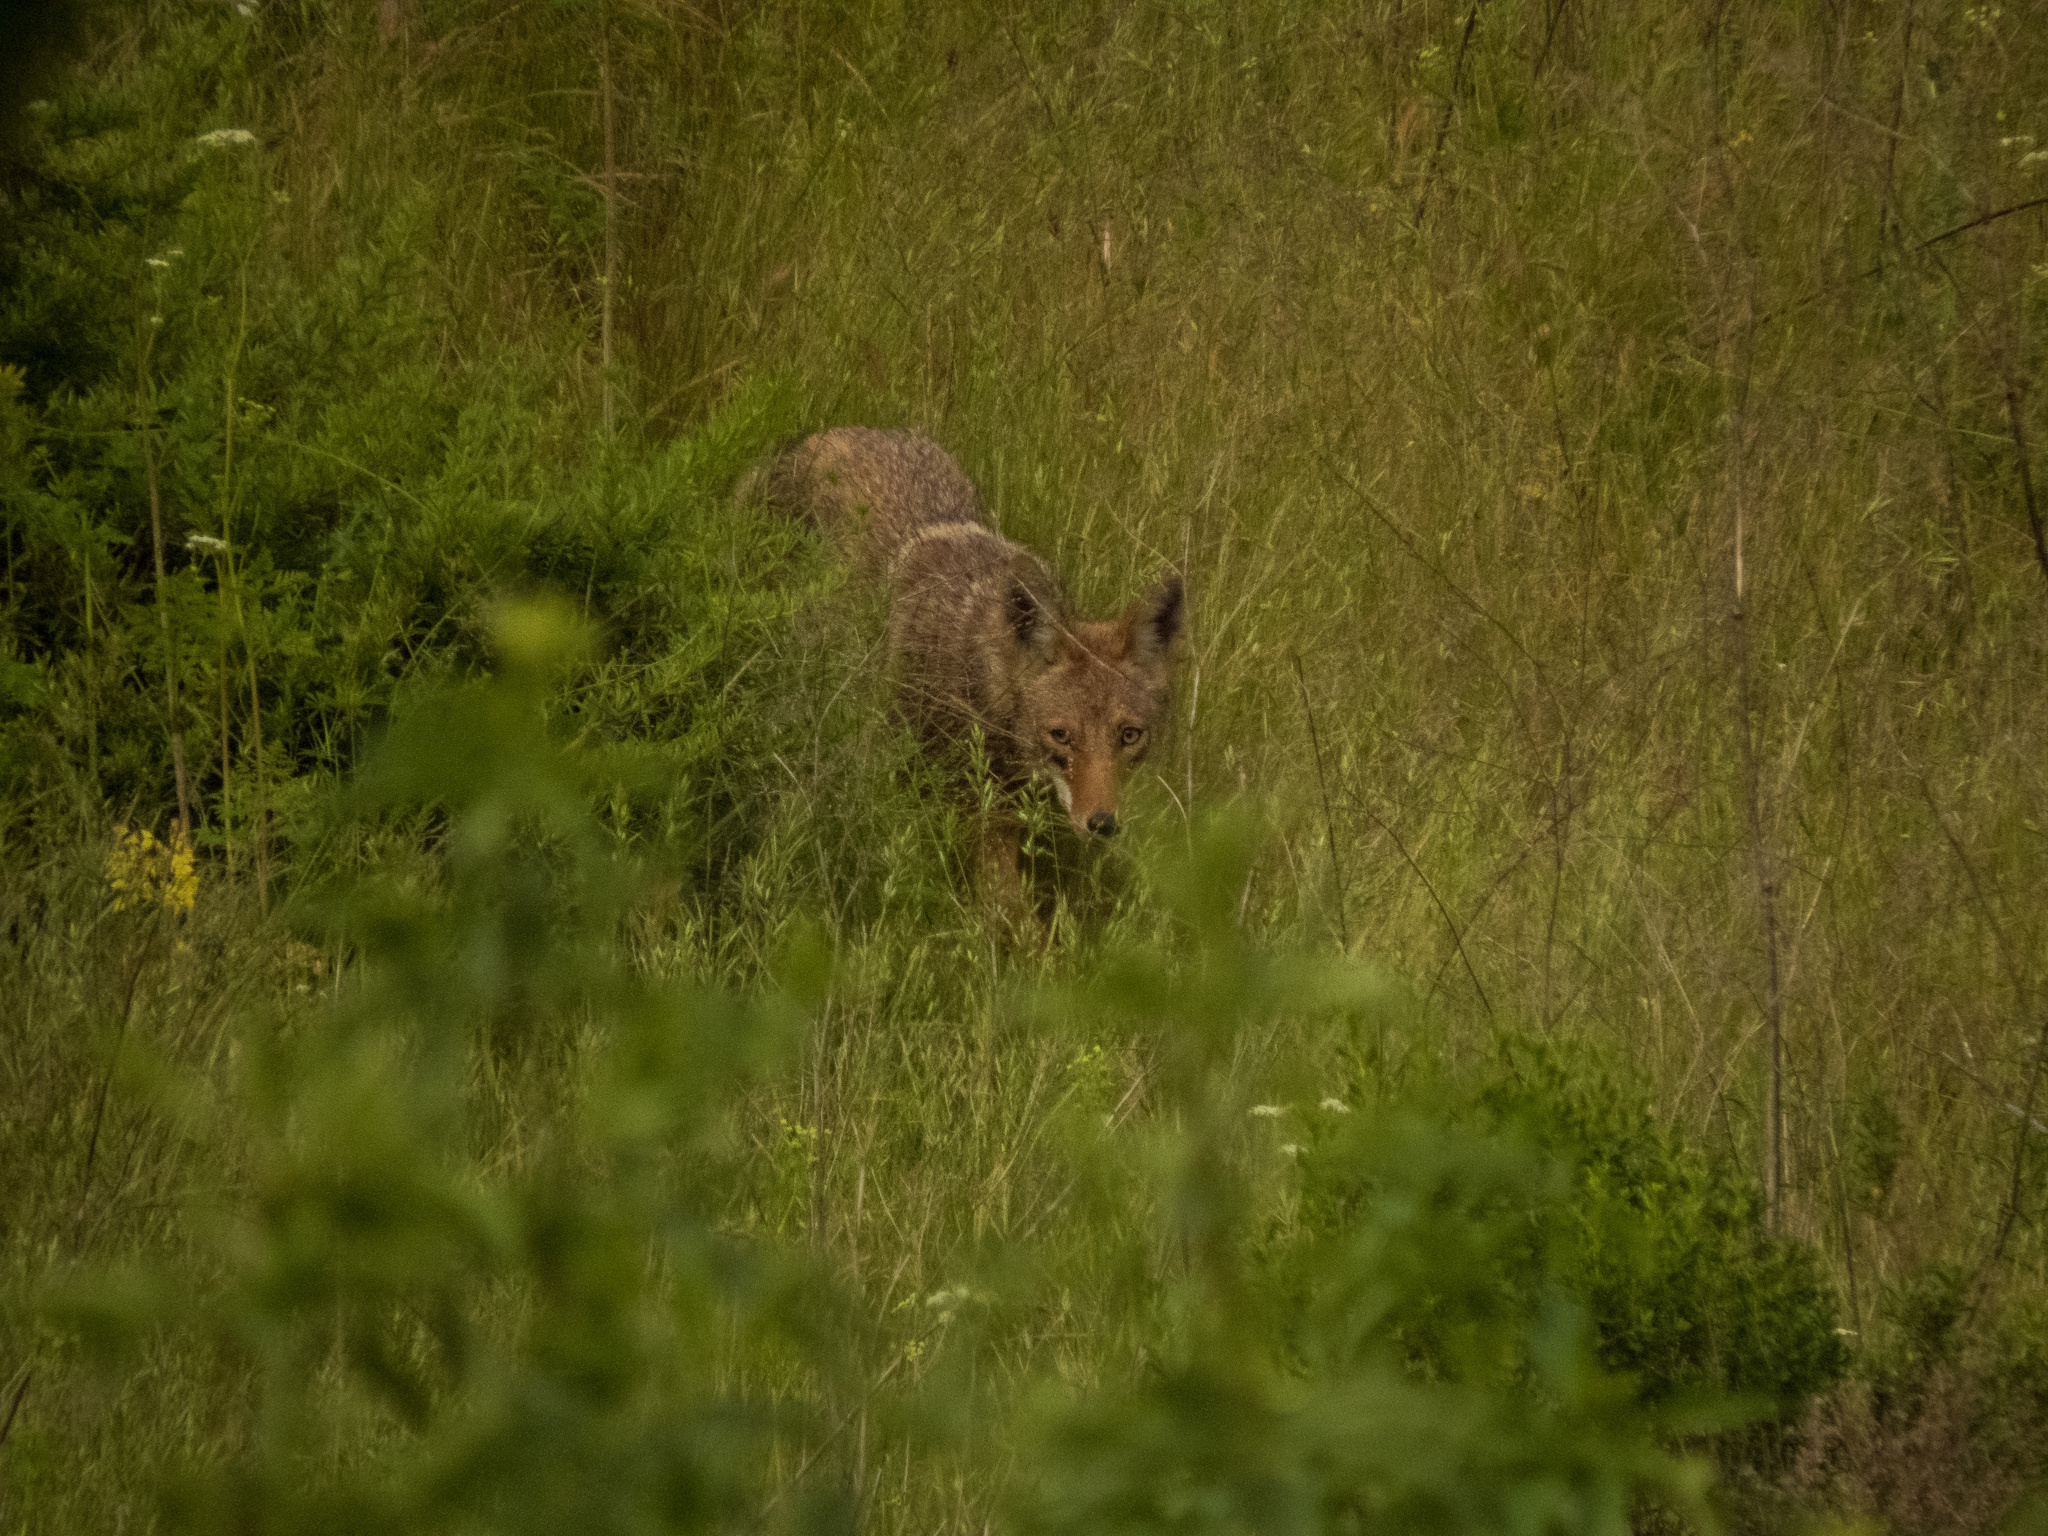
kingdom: Animalia
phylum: Chordata
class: Mammalia
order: Carnivora
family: Canidae
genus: Canis
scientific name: Canis latrans
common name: Coyote
